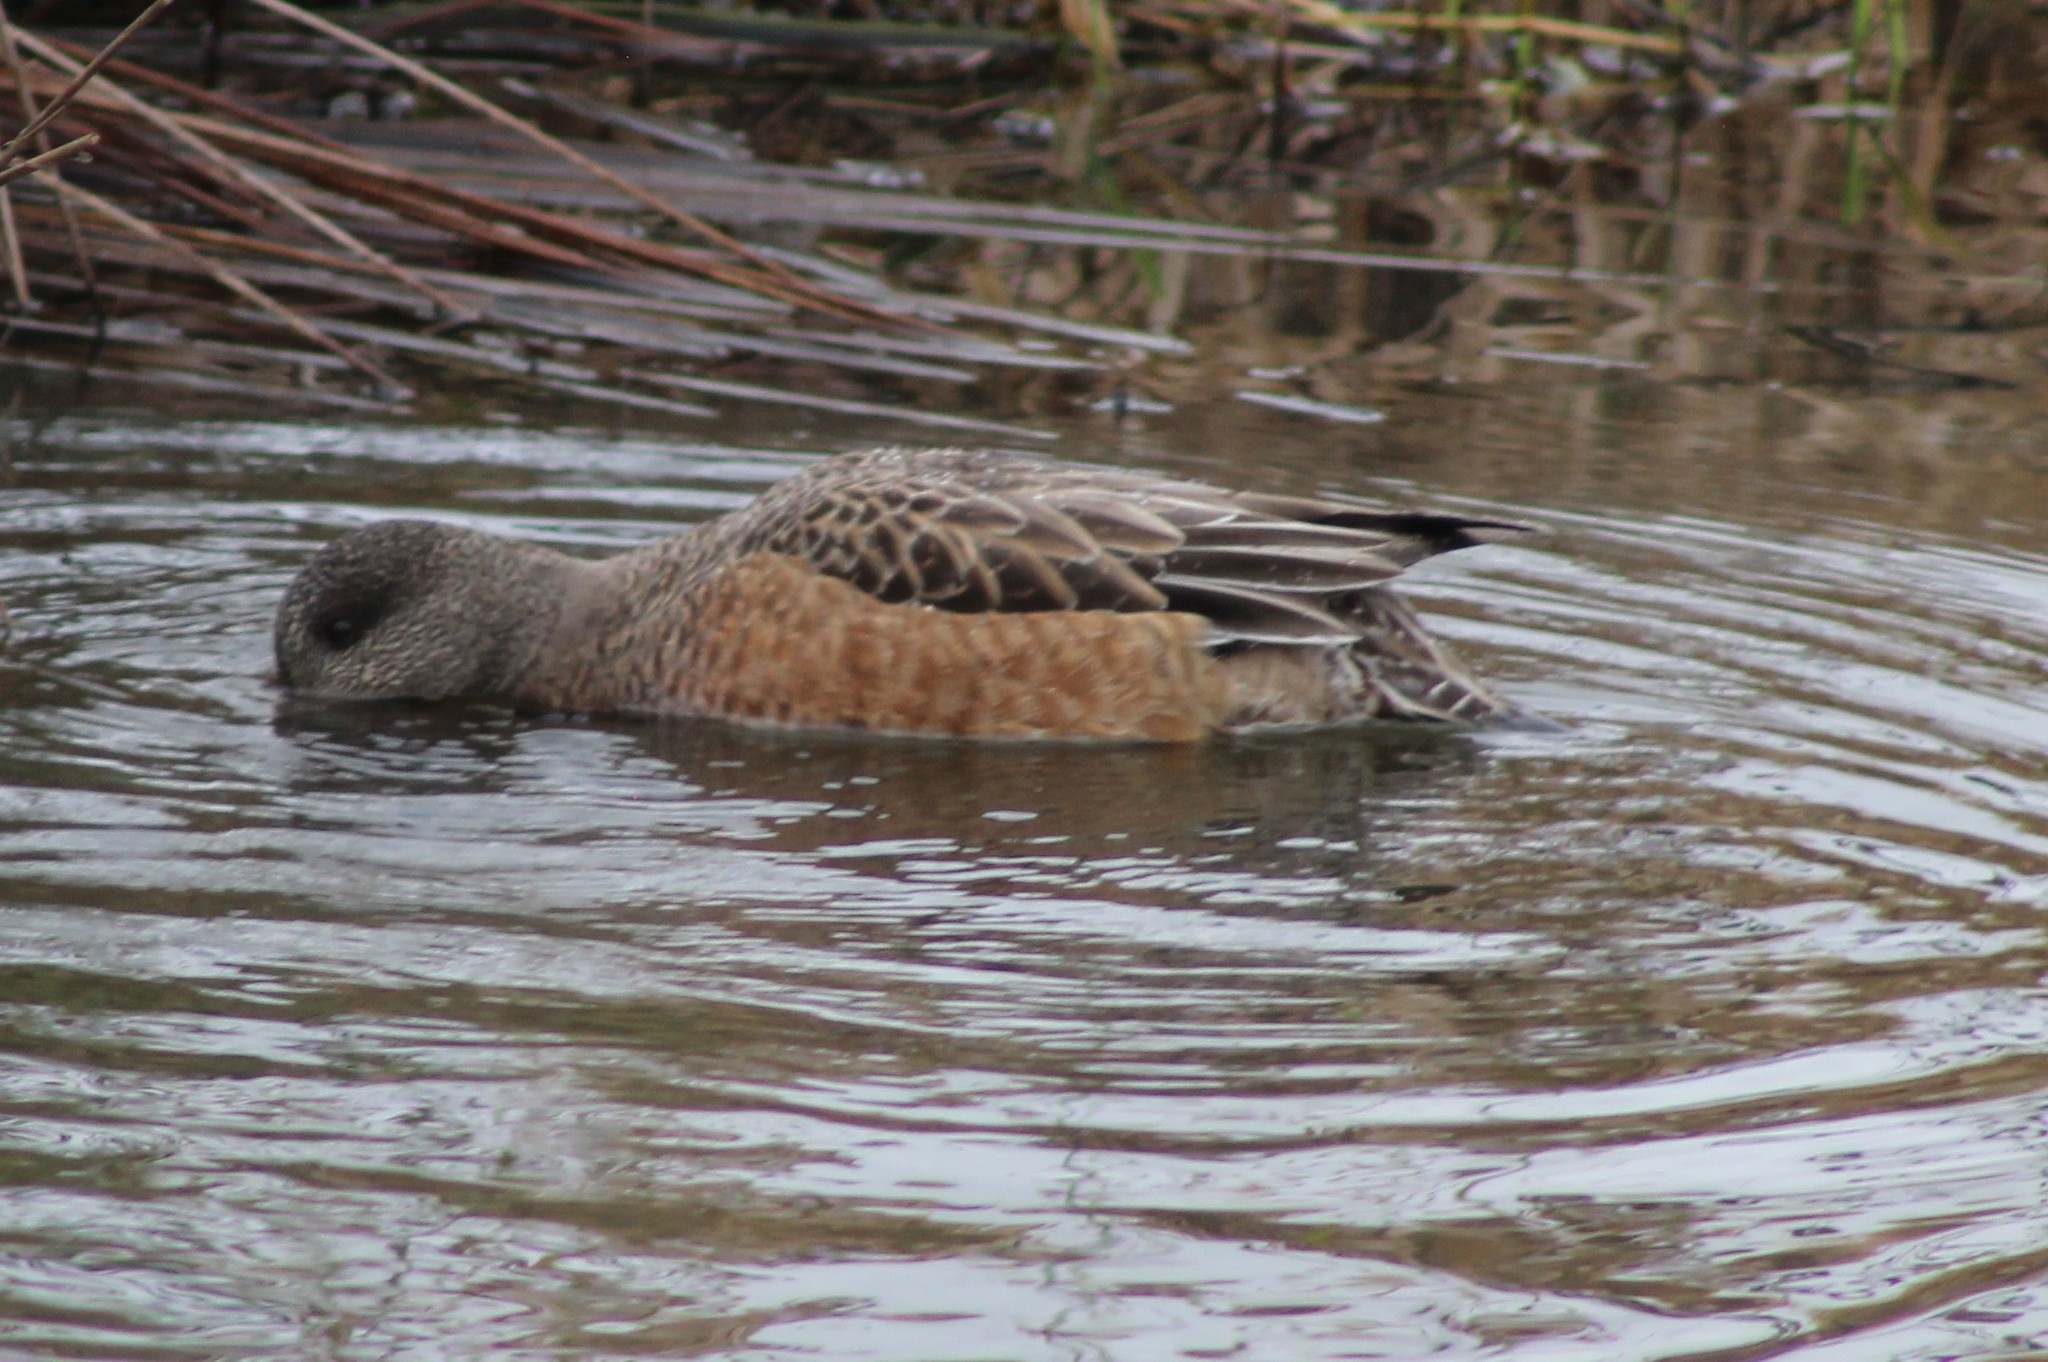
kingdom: Animalia
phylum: Chordata
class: Aves
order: Anseriformes
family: Anatidae
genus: Mareca
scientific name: Mareca americana
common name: American wigeon
